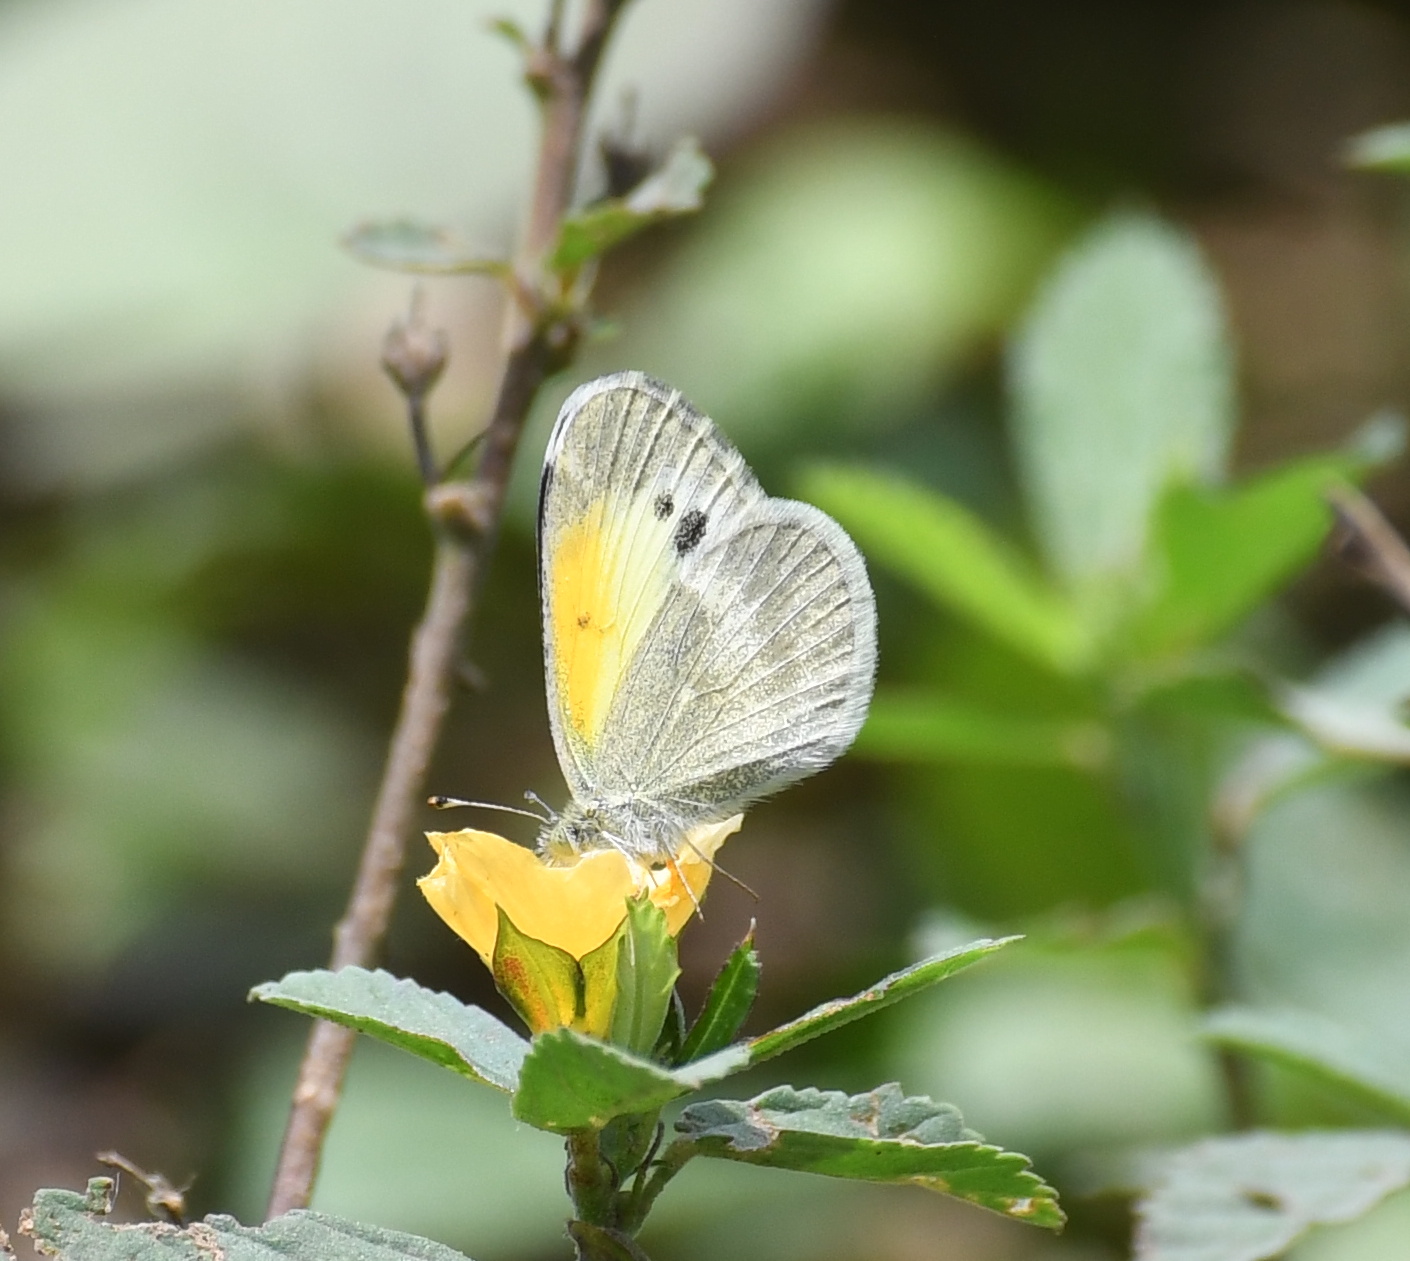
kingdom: Animalia
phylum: Arthropoda
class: Insecta
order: Lepidoptera
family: Pieridae
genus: Nathalis
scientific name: Nathalis iole
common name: Dainty sulphur
